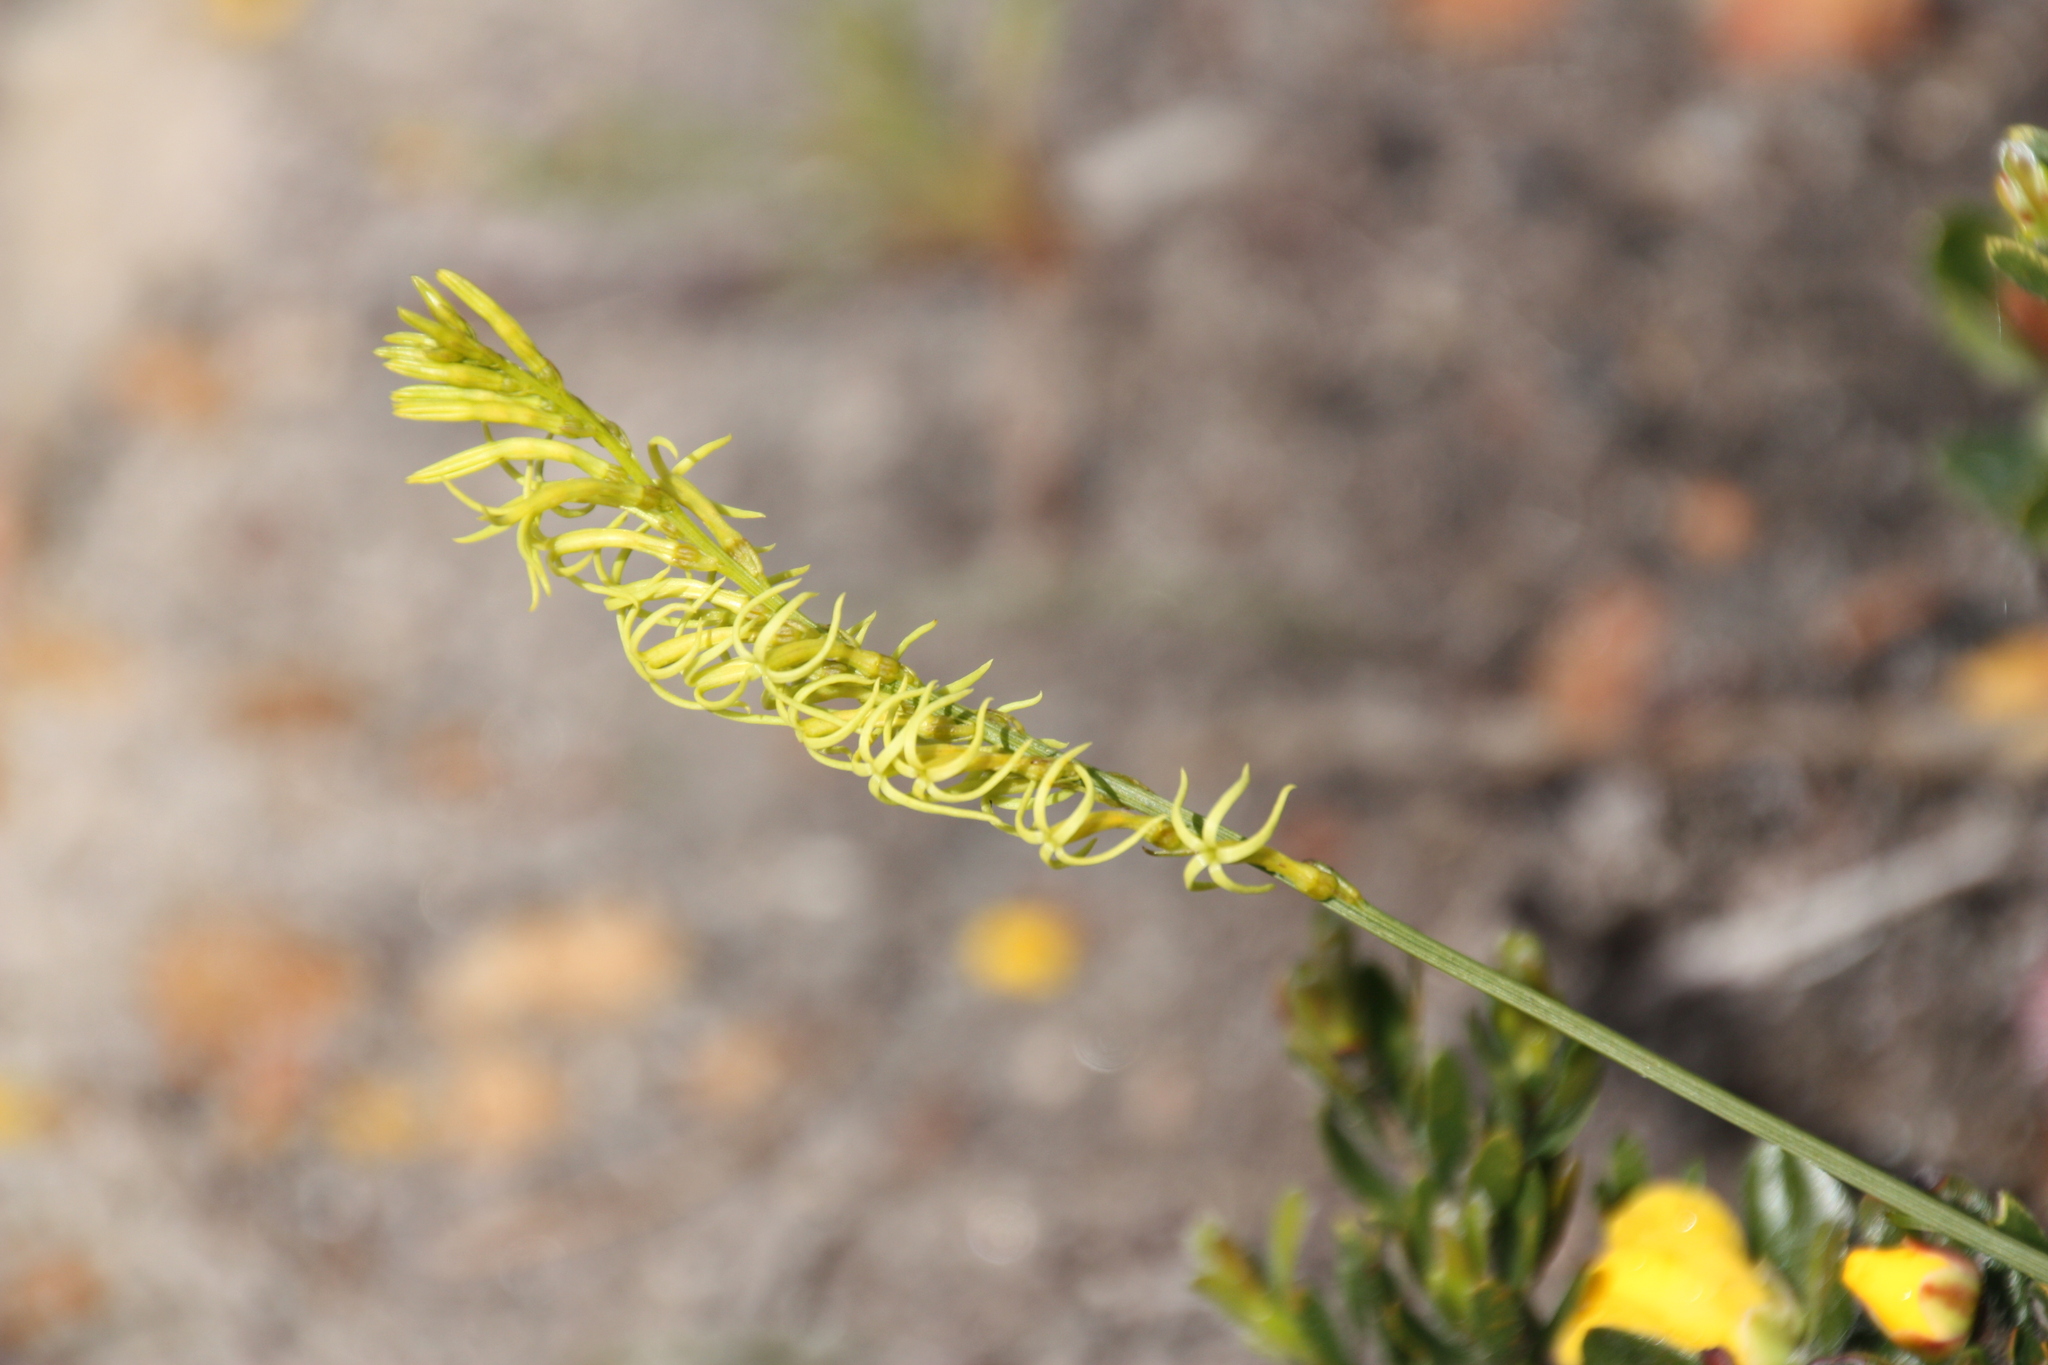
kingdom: Plantae
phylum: Tracheophyta
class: Magnoliopsida
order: Celastrales
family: Celastraceae
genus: Tripterococcus
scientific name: Tripterococcus brunonis
